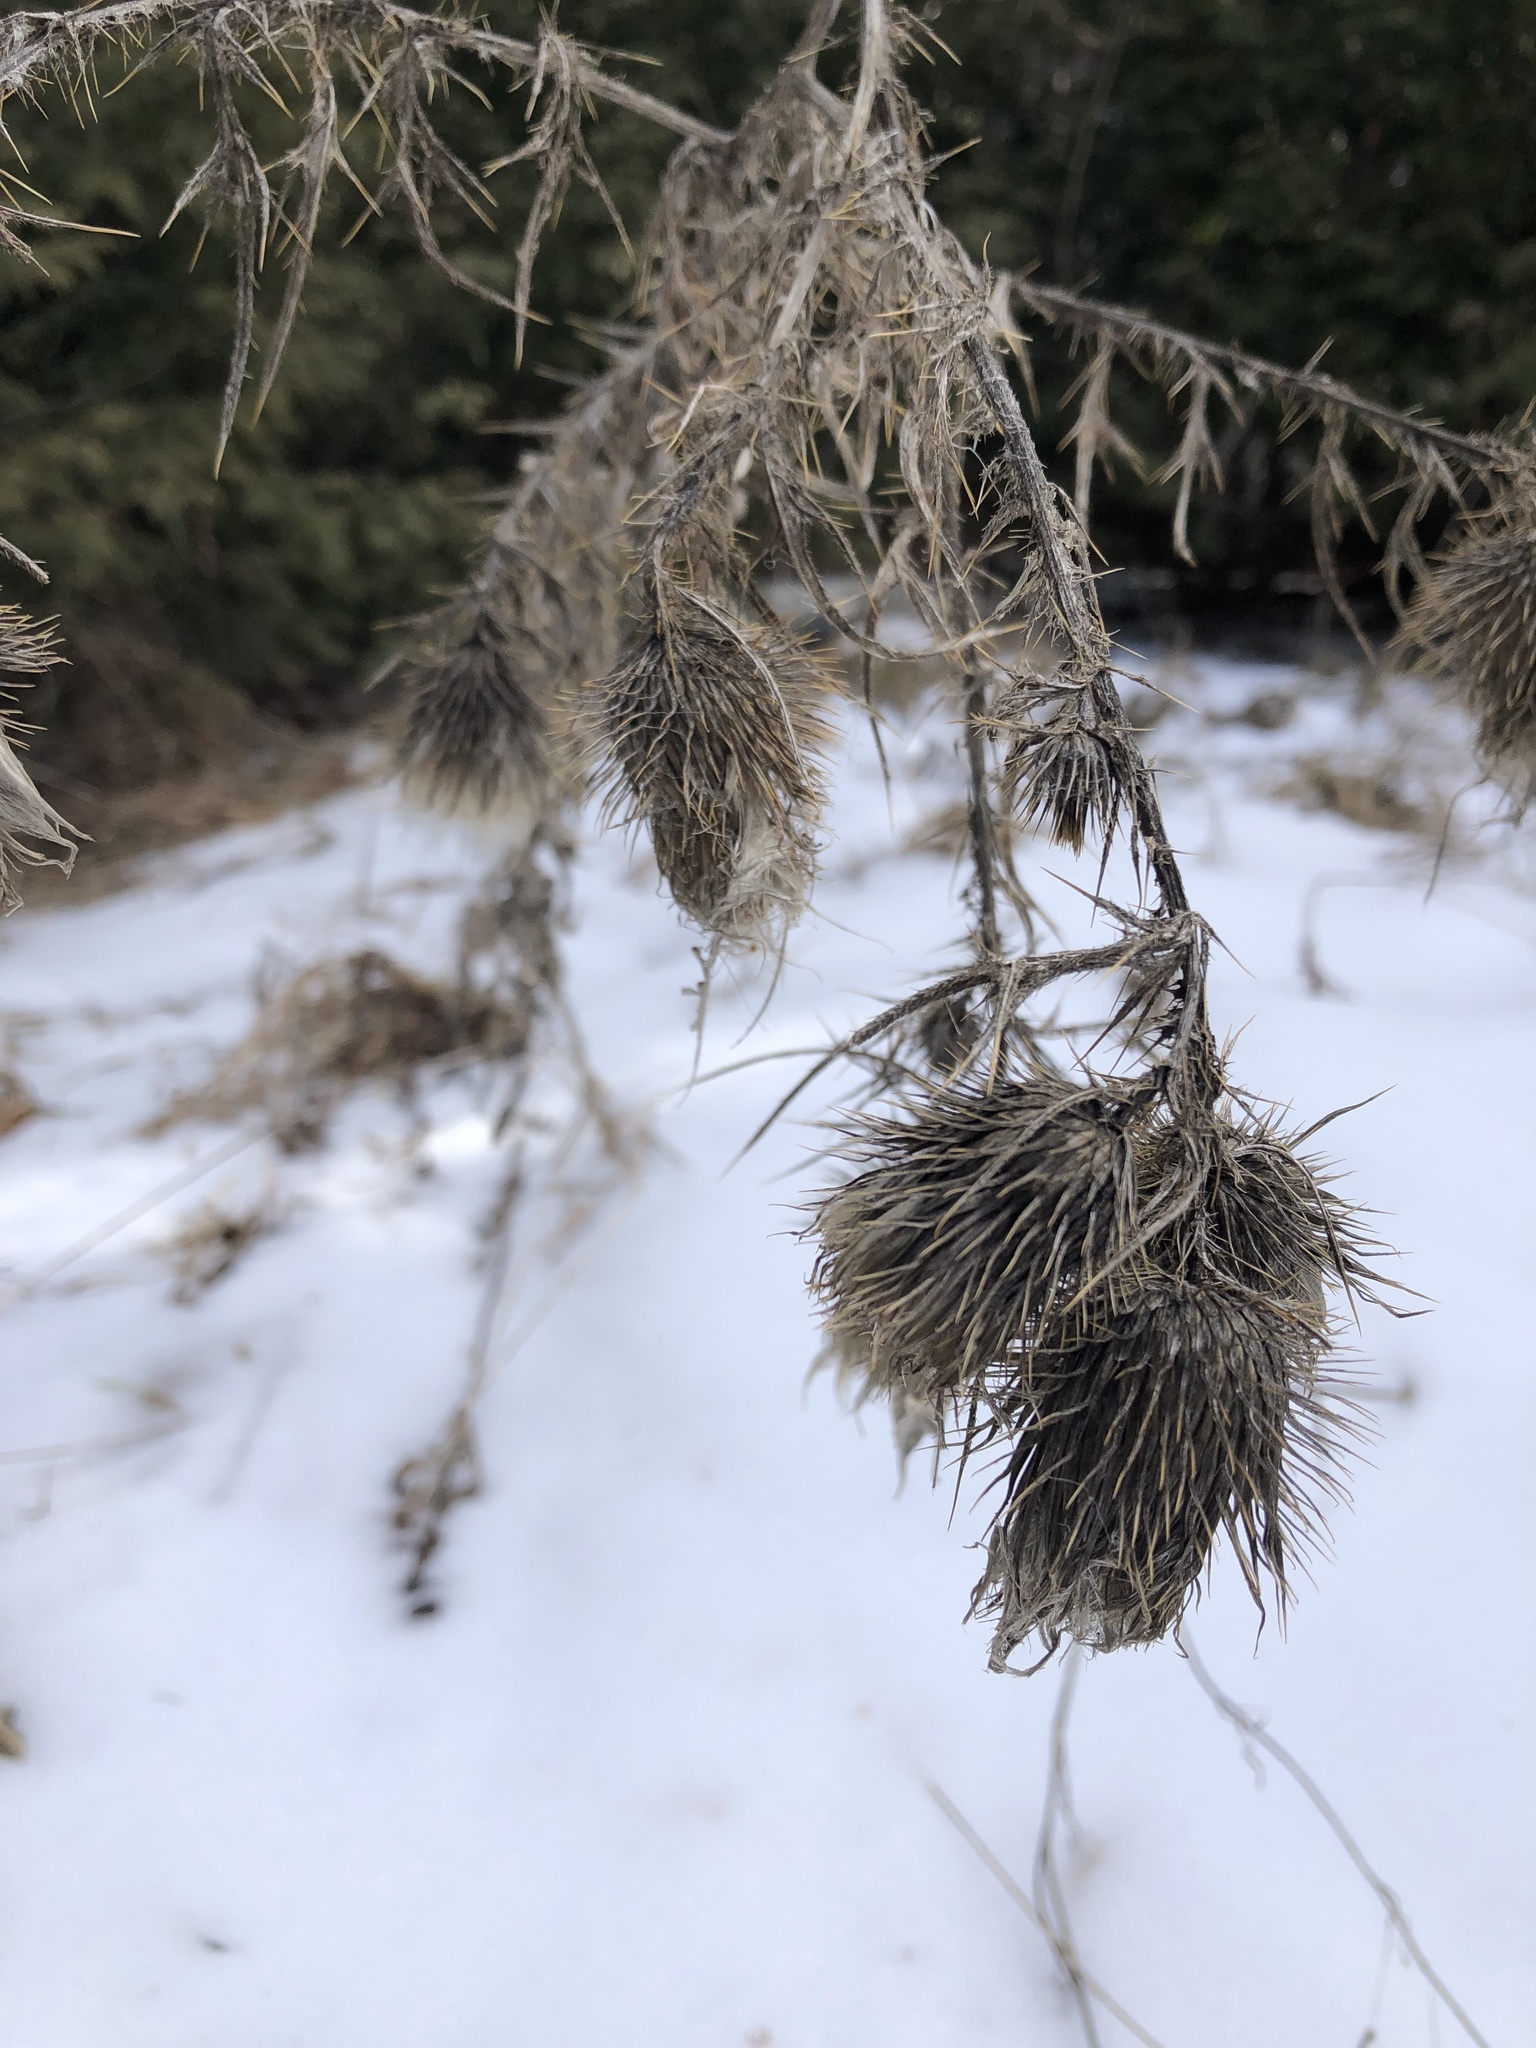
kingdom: Plantae
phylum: Tracheophyta
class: Magnoliopsida
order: Asterales
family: Asteraceae
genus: Cirsium
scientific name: Cirsium vulgare
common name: Bull thistle
